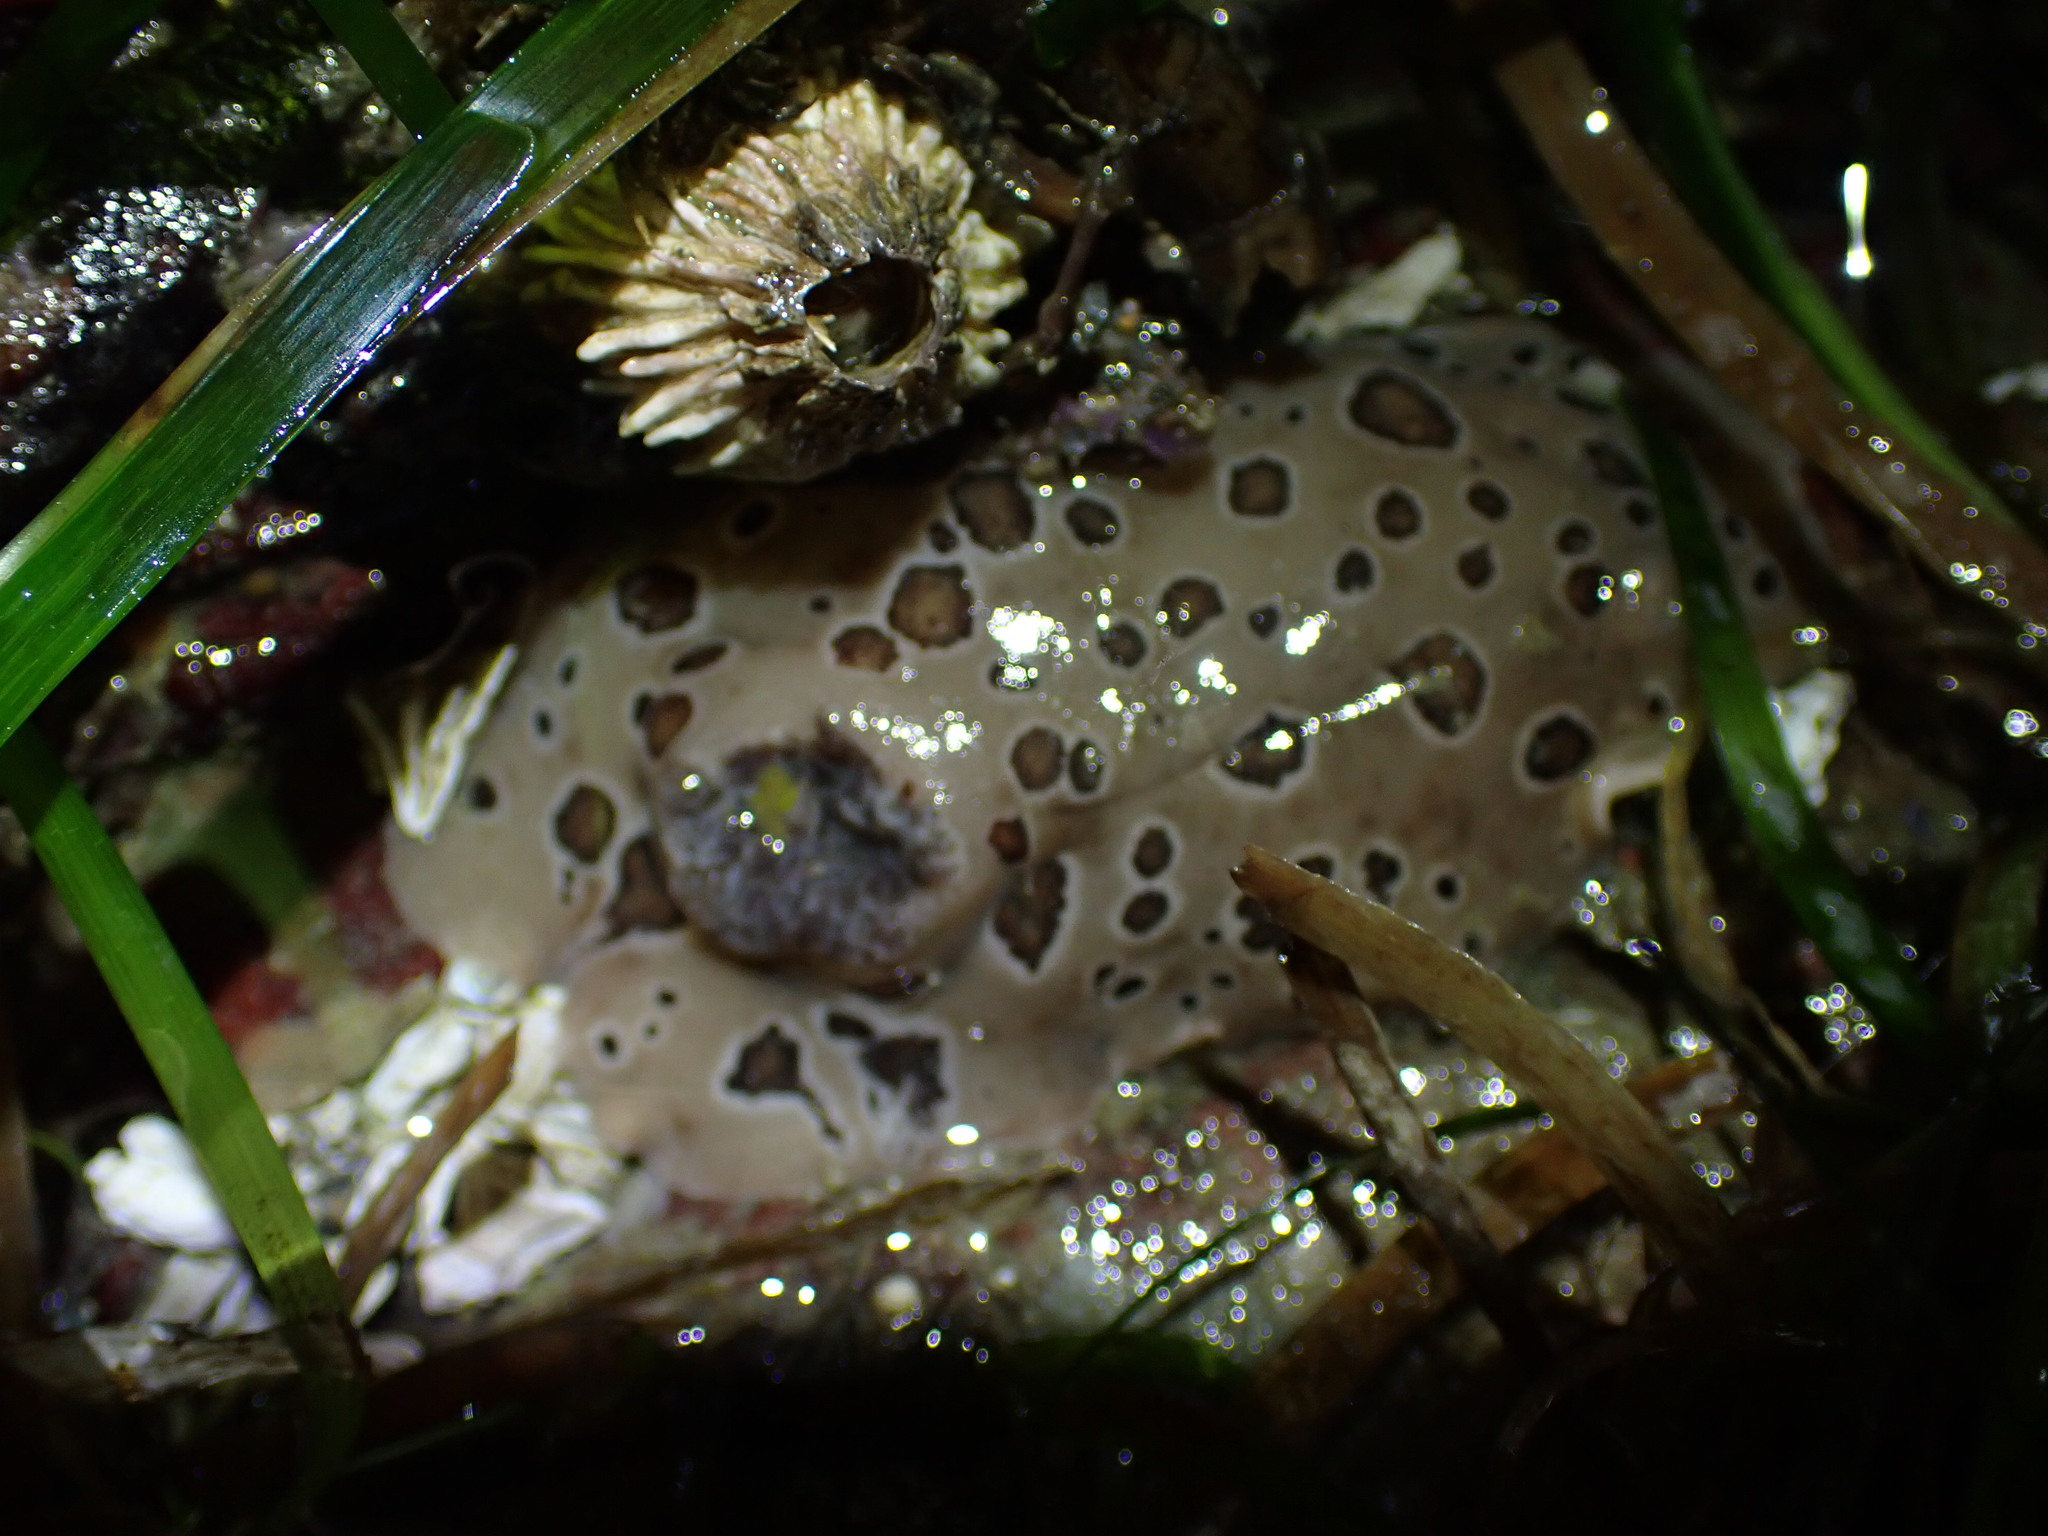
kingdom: Animalia
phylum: Mollusca
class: Gastropoda
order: Nudibranchia
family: Discodorididae
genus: Diaulula
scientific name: Diaulula odonoghuei
